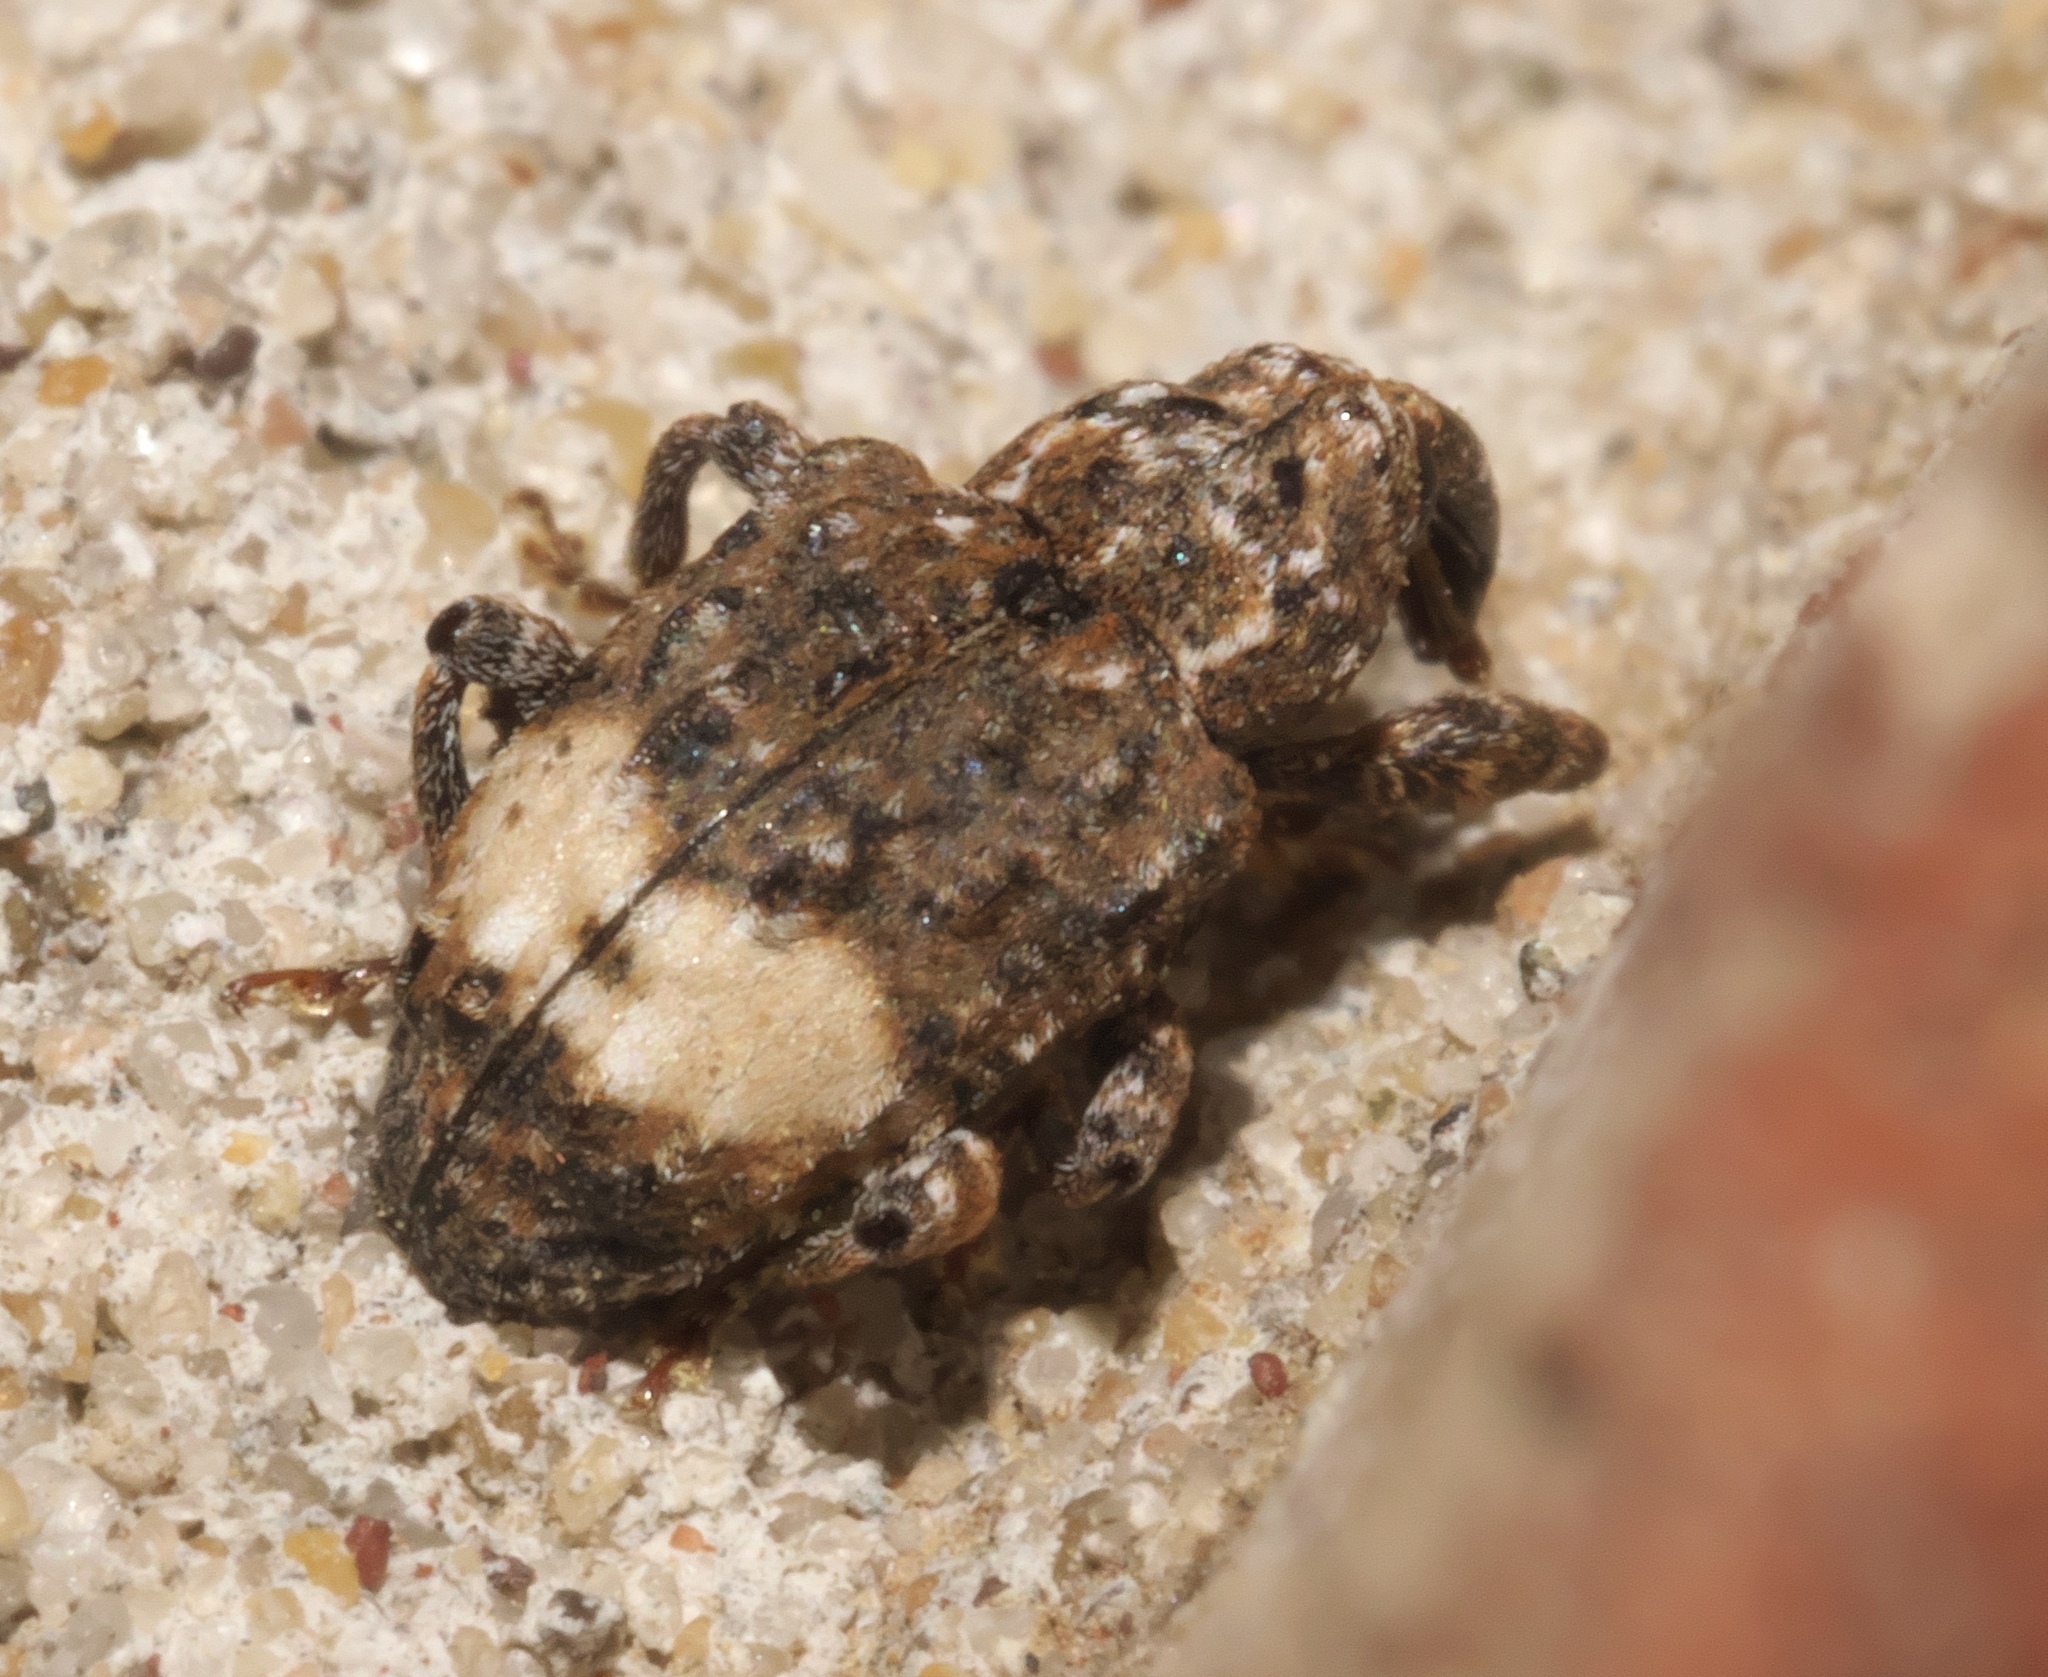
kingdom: Animalia
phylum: Arthropoda
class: Insecta
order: Coleoptera
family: Curculionidae
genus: Conotrachelus
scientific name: Conotrachelus buchanani
